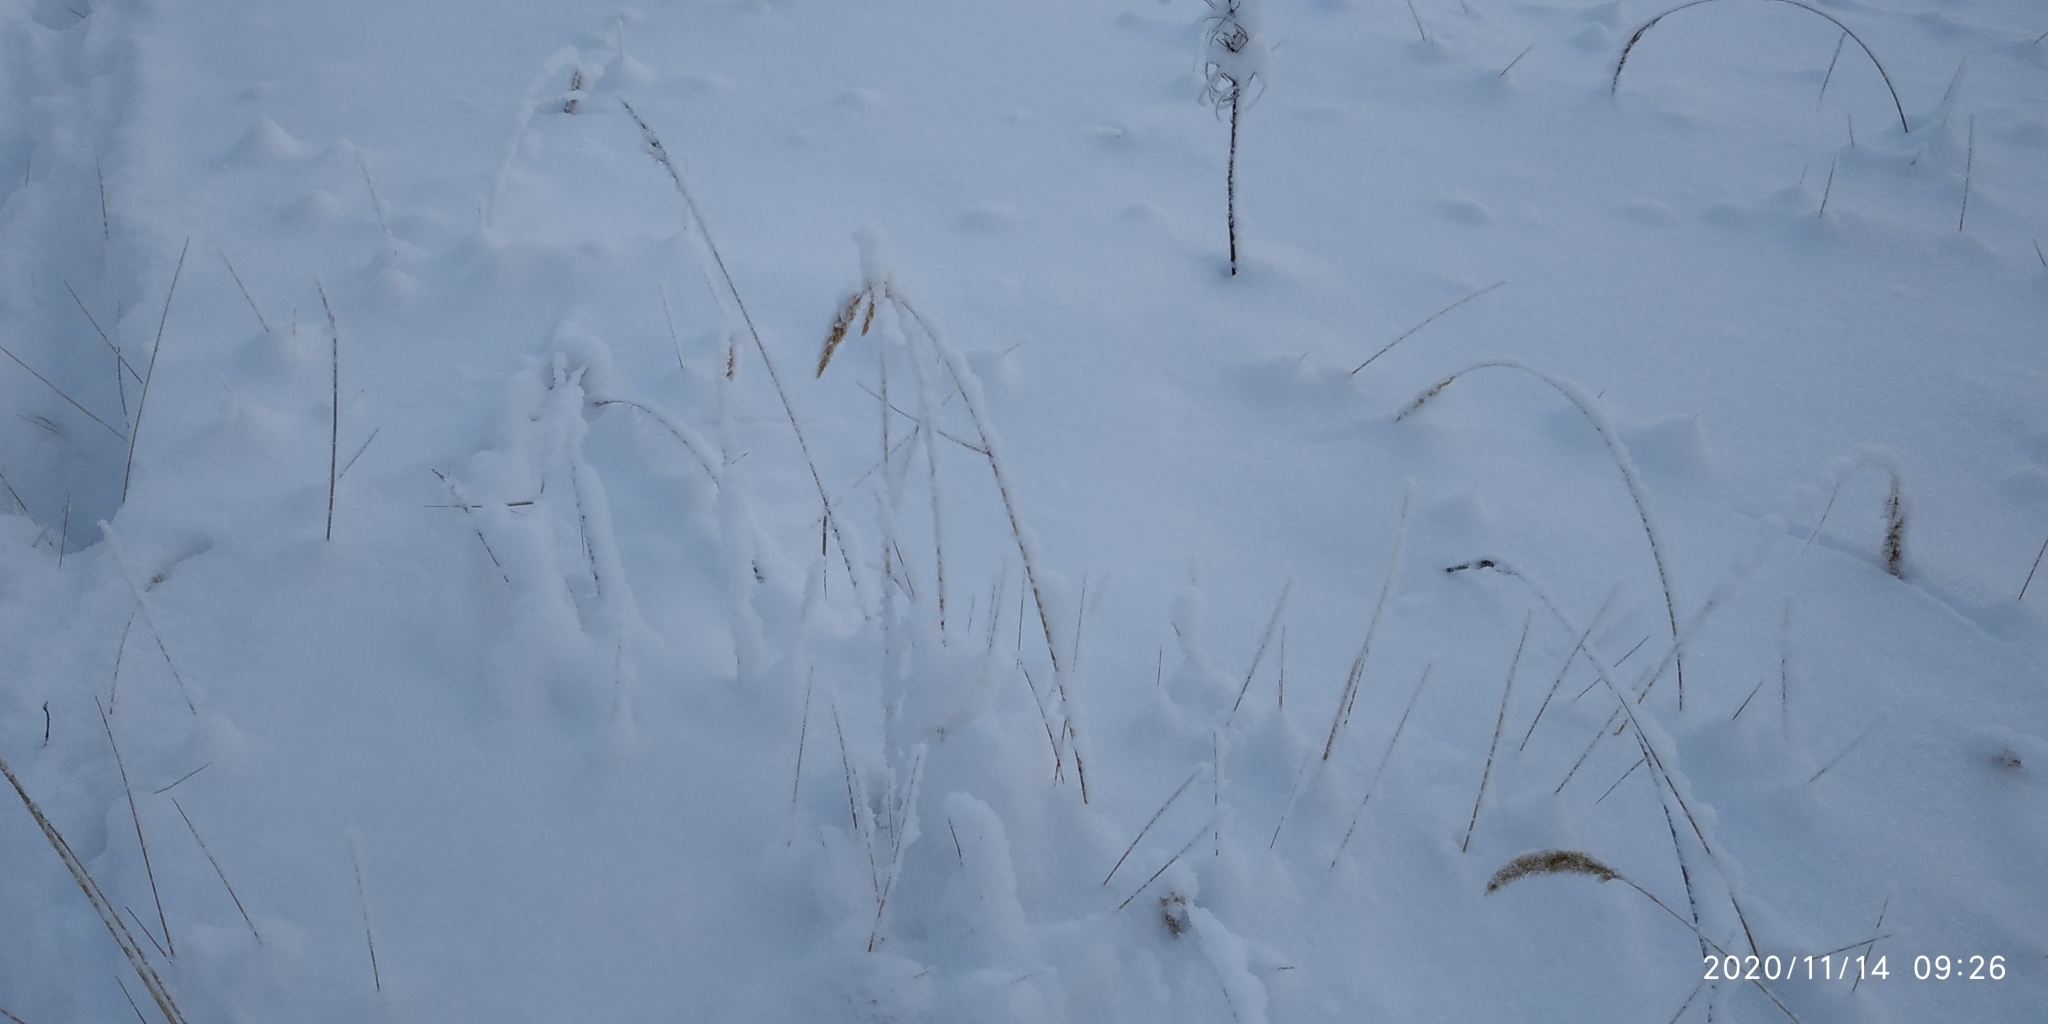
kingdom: Plantae
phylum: Tracheophyta
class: Liliopsida
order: Poales
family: Poaceae
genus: Calamagrostis
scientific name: Calamagrostis purpurea
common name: Scandinavian small-reed
